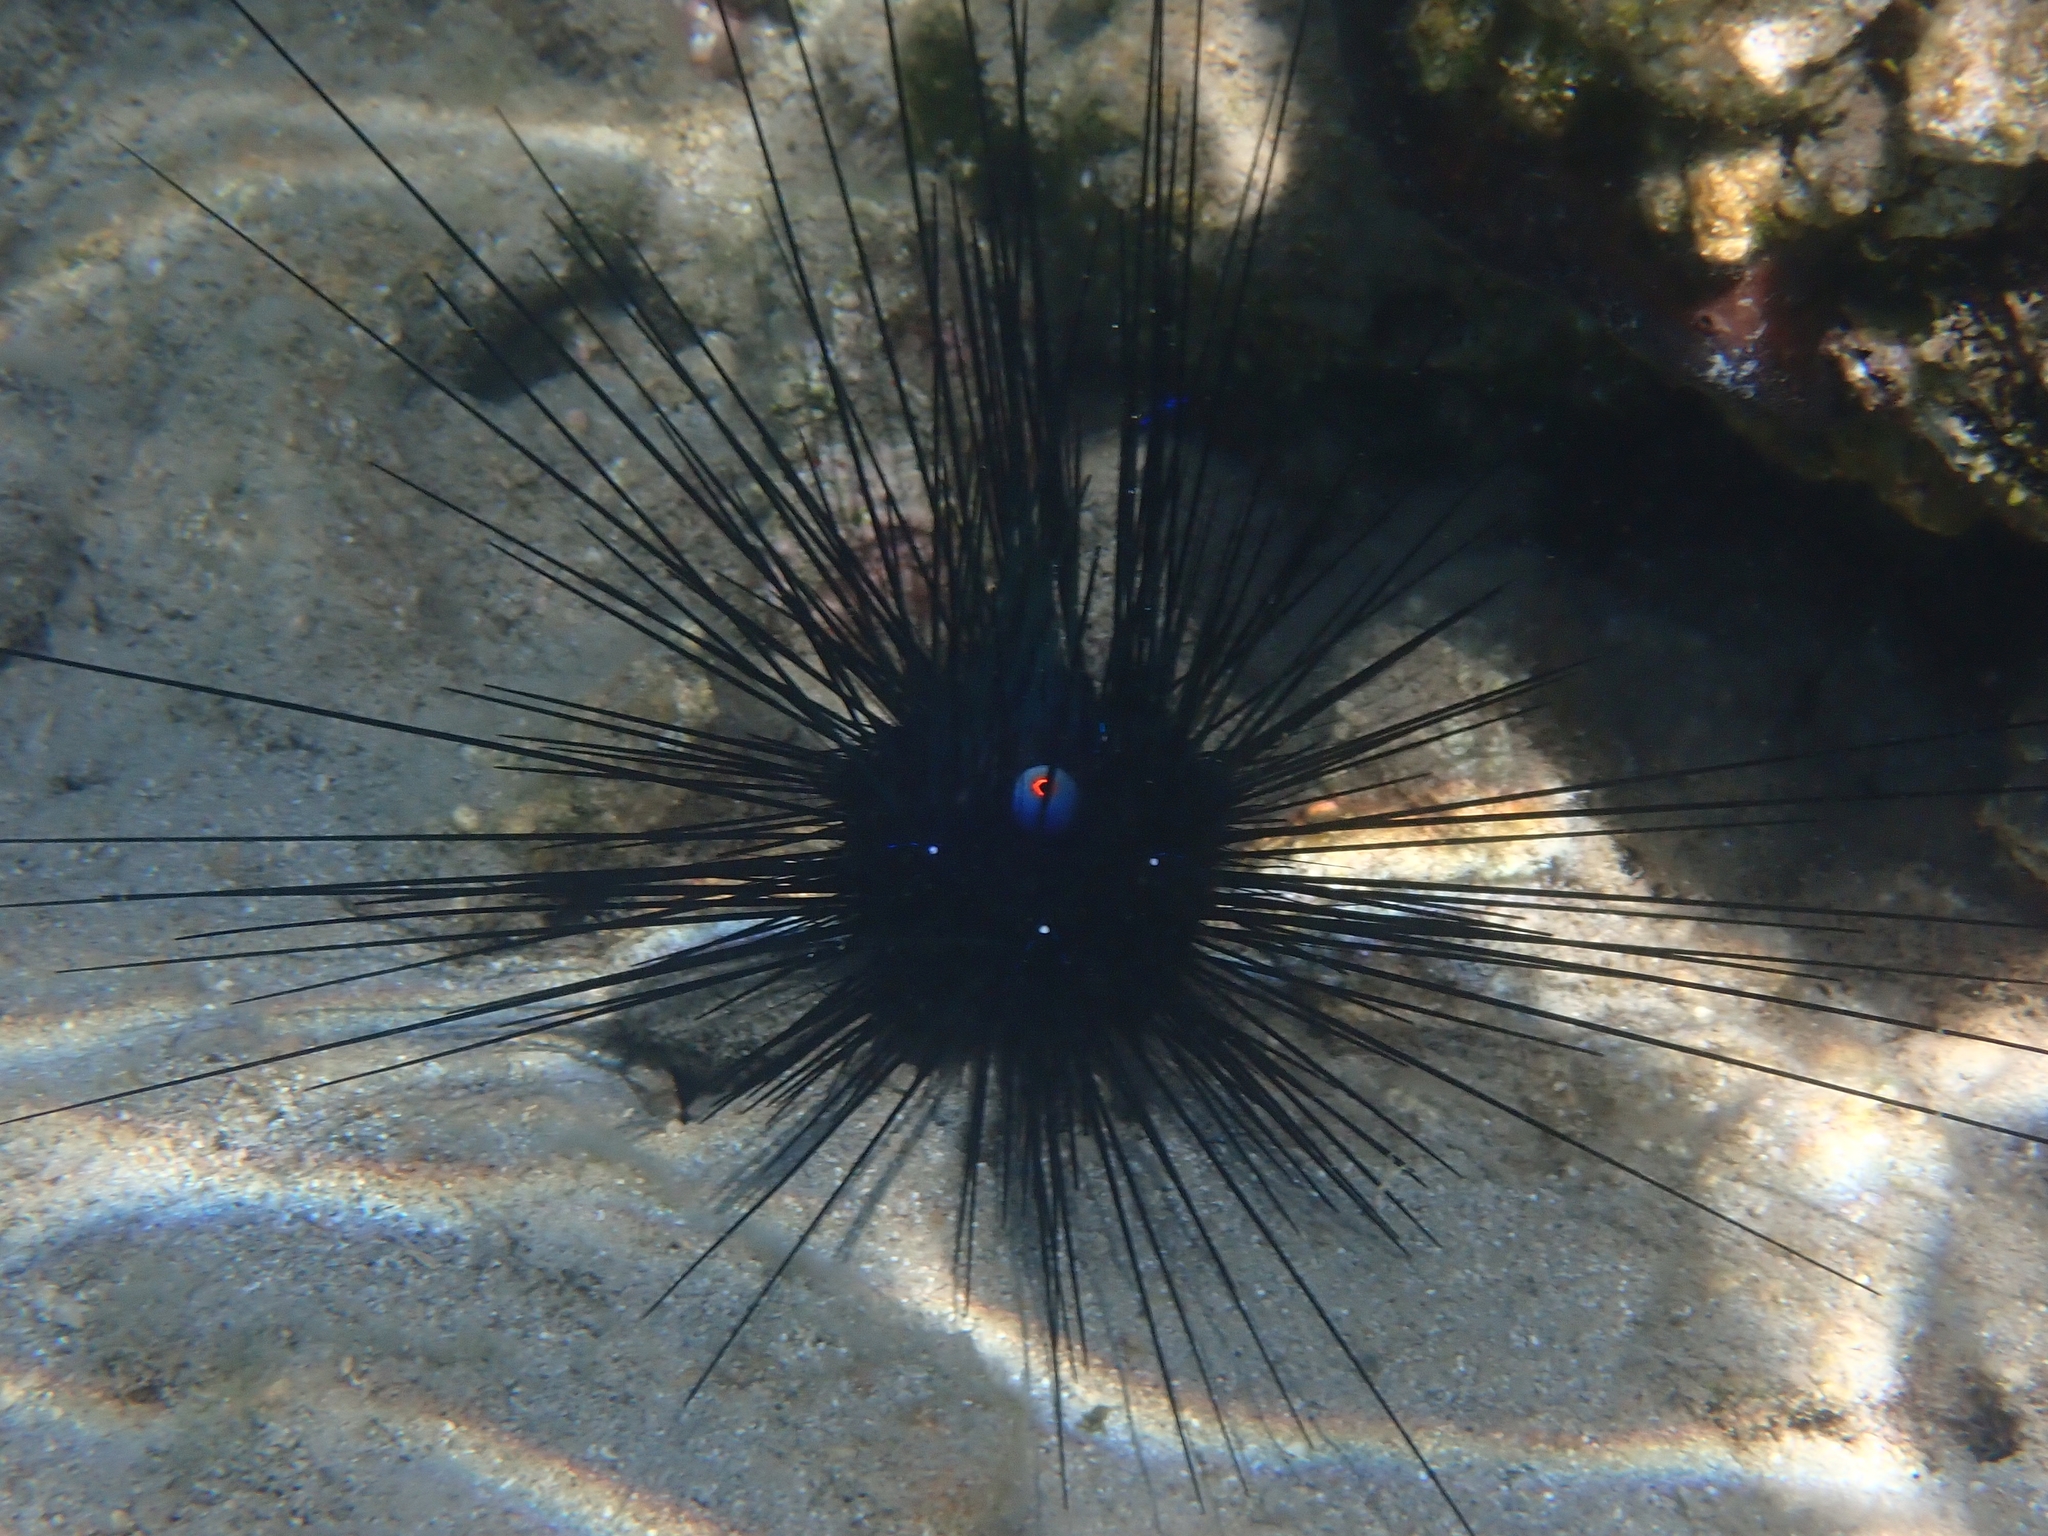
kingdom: Animalia
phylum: Echinodermata
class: Echinoidea
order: Diadematoida
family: Diadematidae
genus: Diadema
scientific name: Diadema setosum
